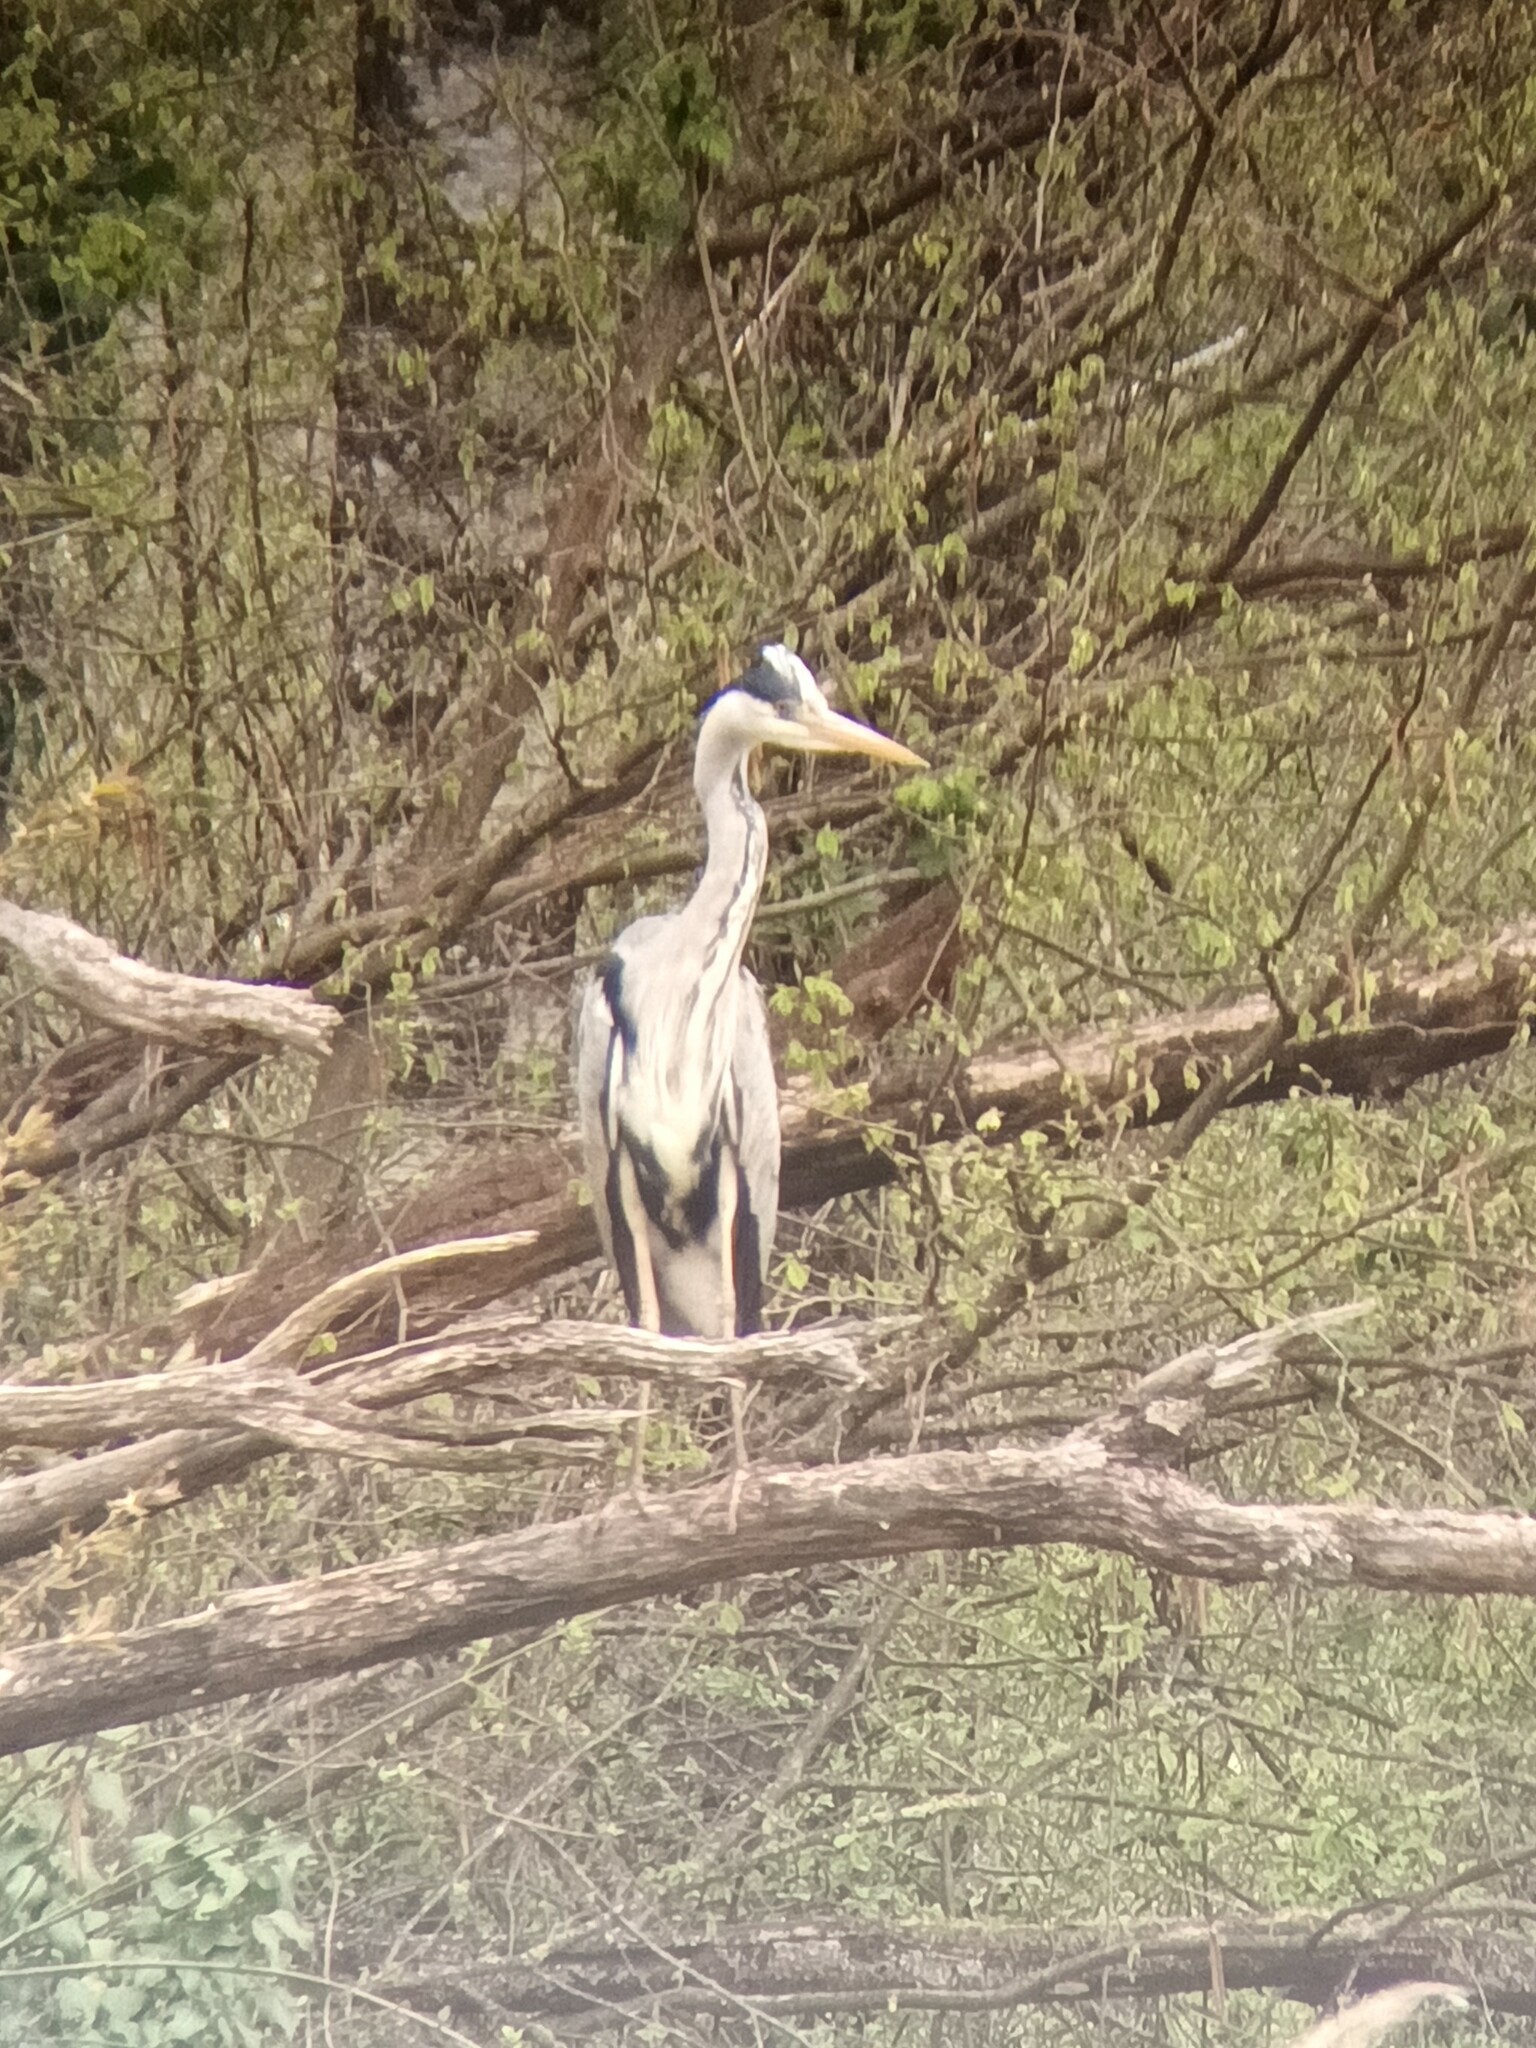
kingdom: Animalia
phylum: Chordata
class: Aves
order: Pelecaniformes
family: Ardeidae
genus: Ardea
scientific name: Ardea cinerea
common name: Grey heron
